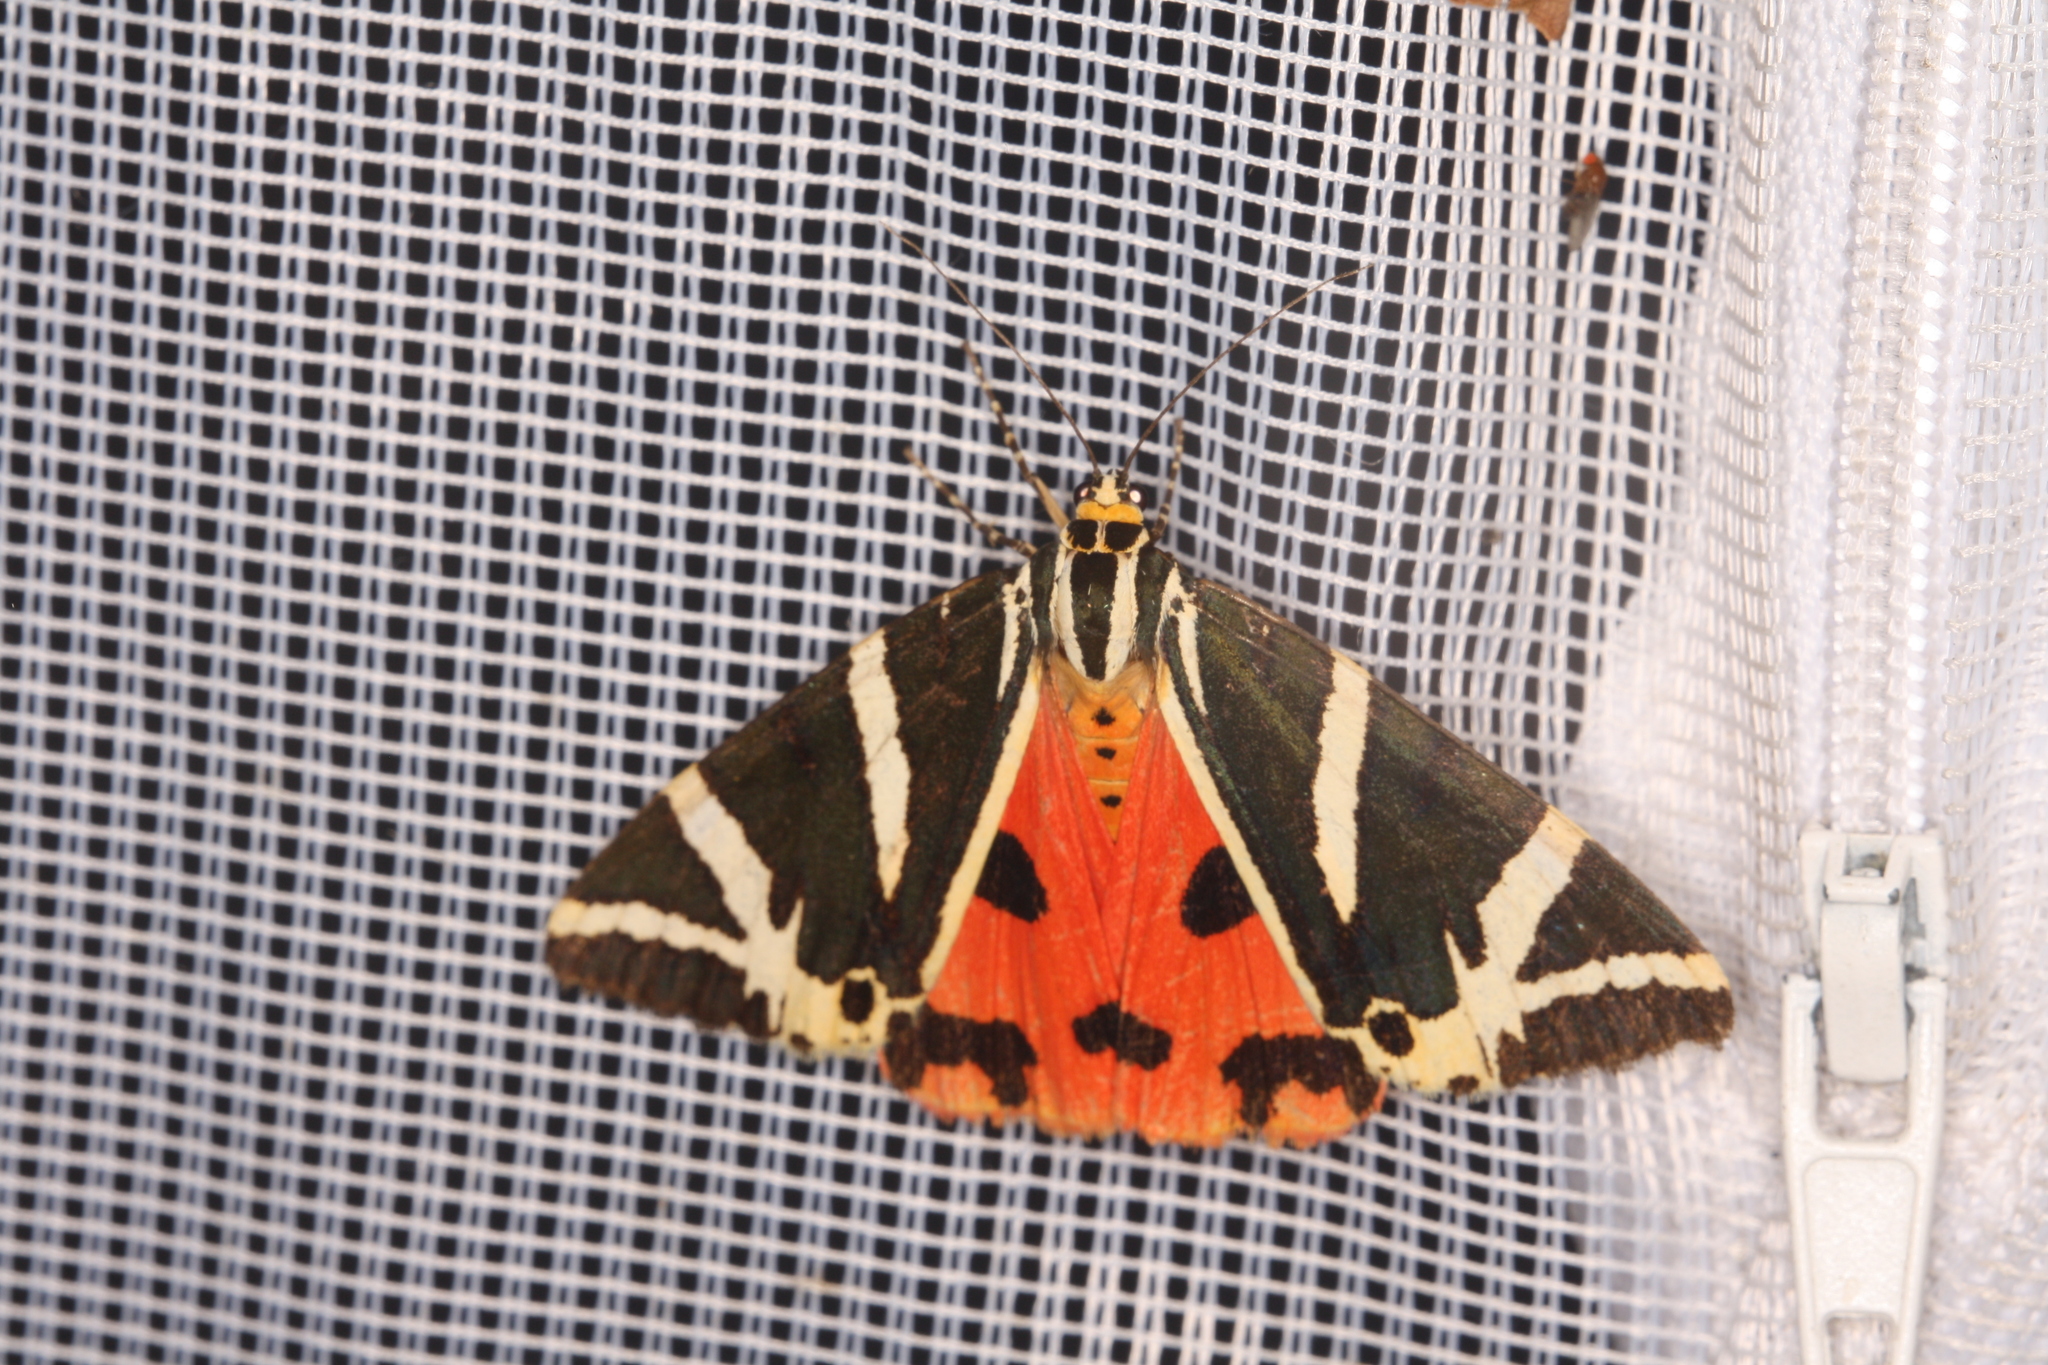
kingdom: Animalia
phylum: Arthropoda
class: Insecta
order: Lepidoptera
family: Erebidae
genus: Euplagia
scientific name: Euplagia quadripunctaria
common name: Jersey tiger
